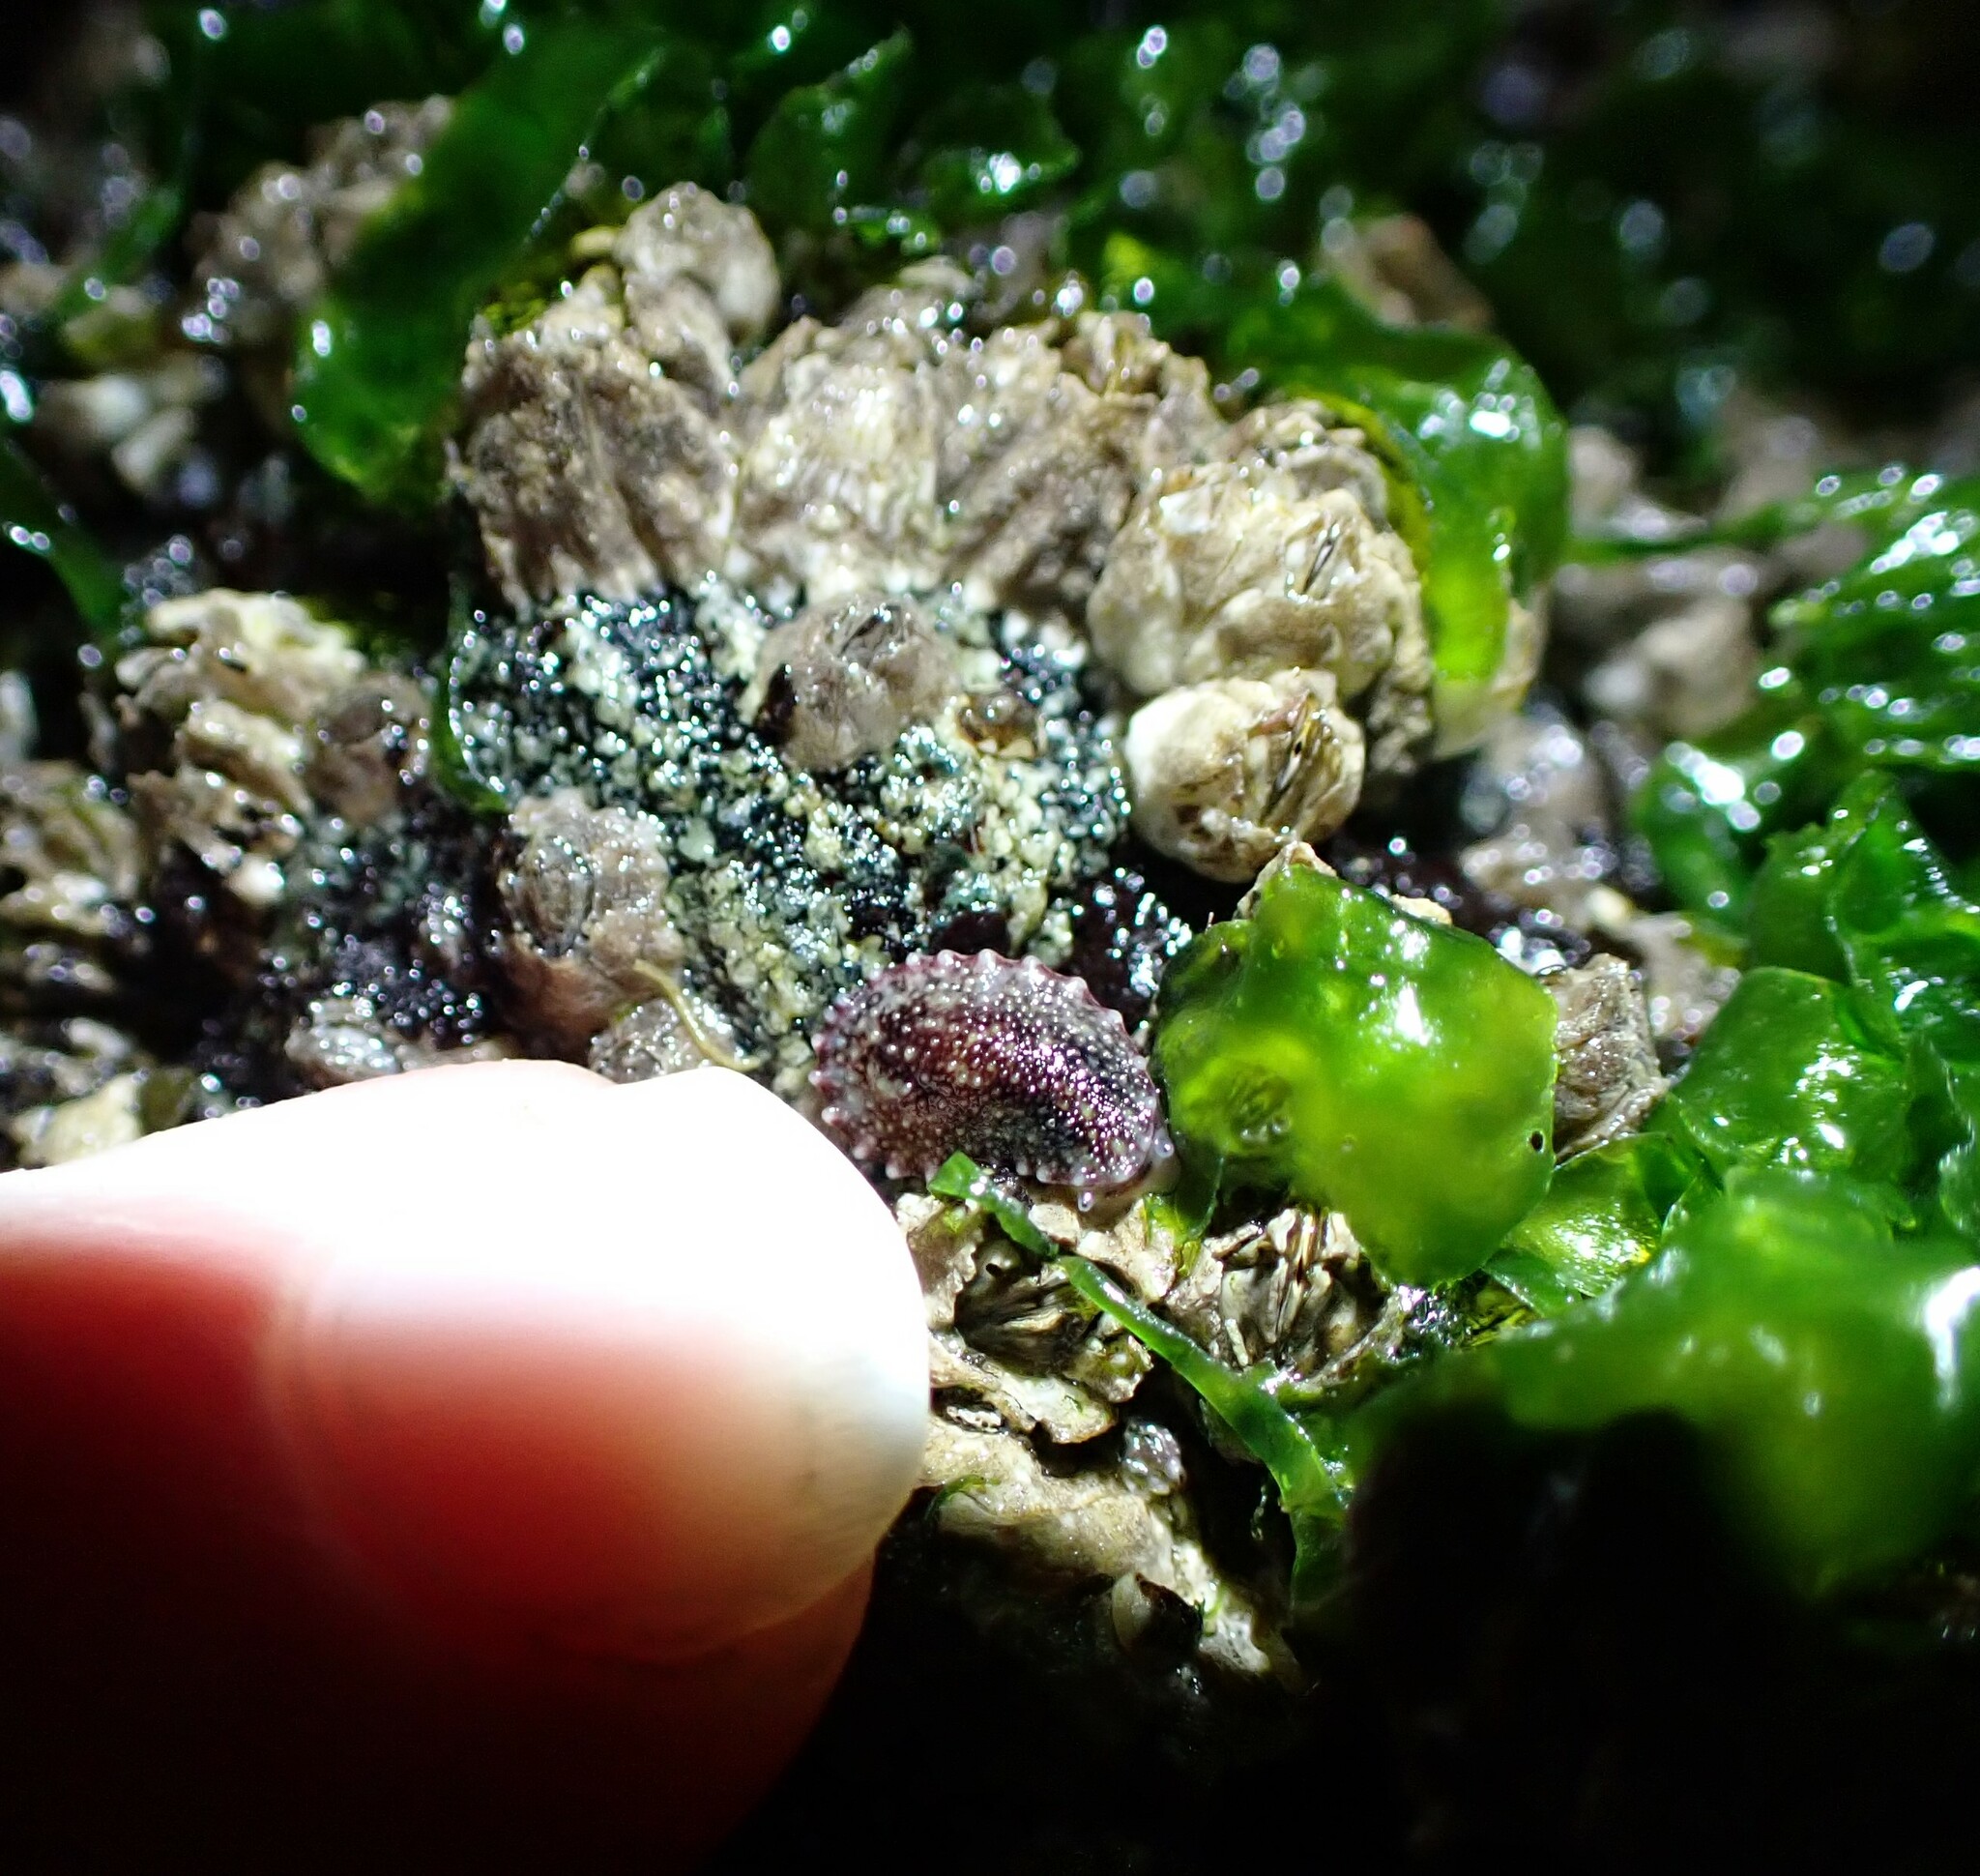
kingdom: Animalia
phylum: Mollusca
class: Gastropoda
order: Systellommatophora
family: Onchidiidae
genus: Onchidella
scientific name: Onchidella carpenteri
